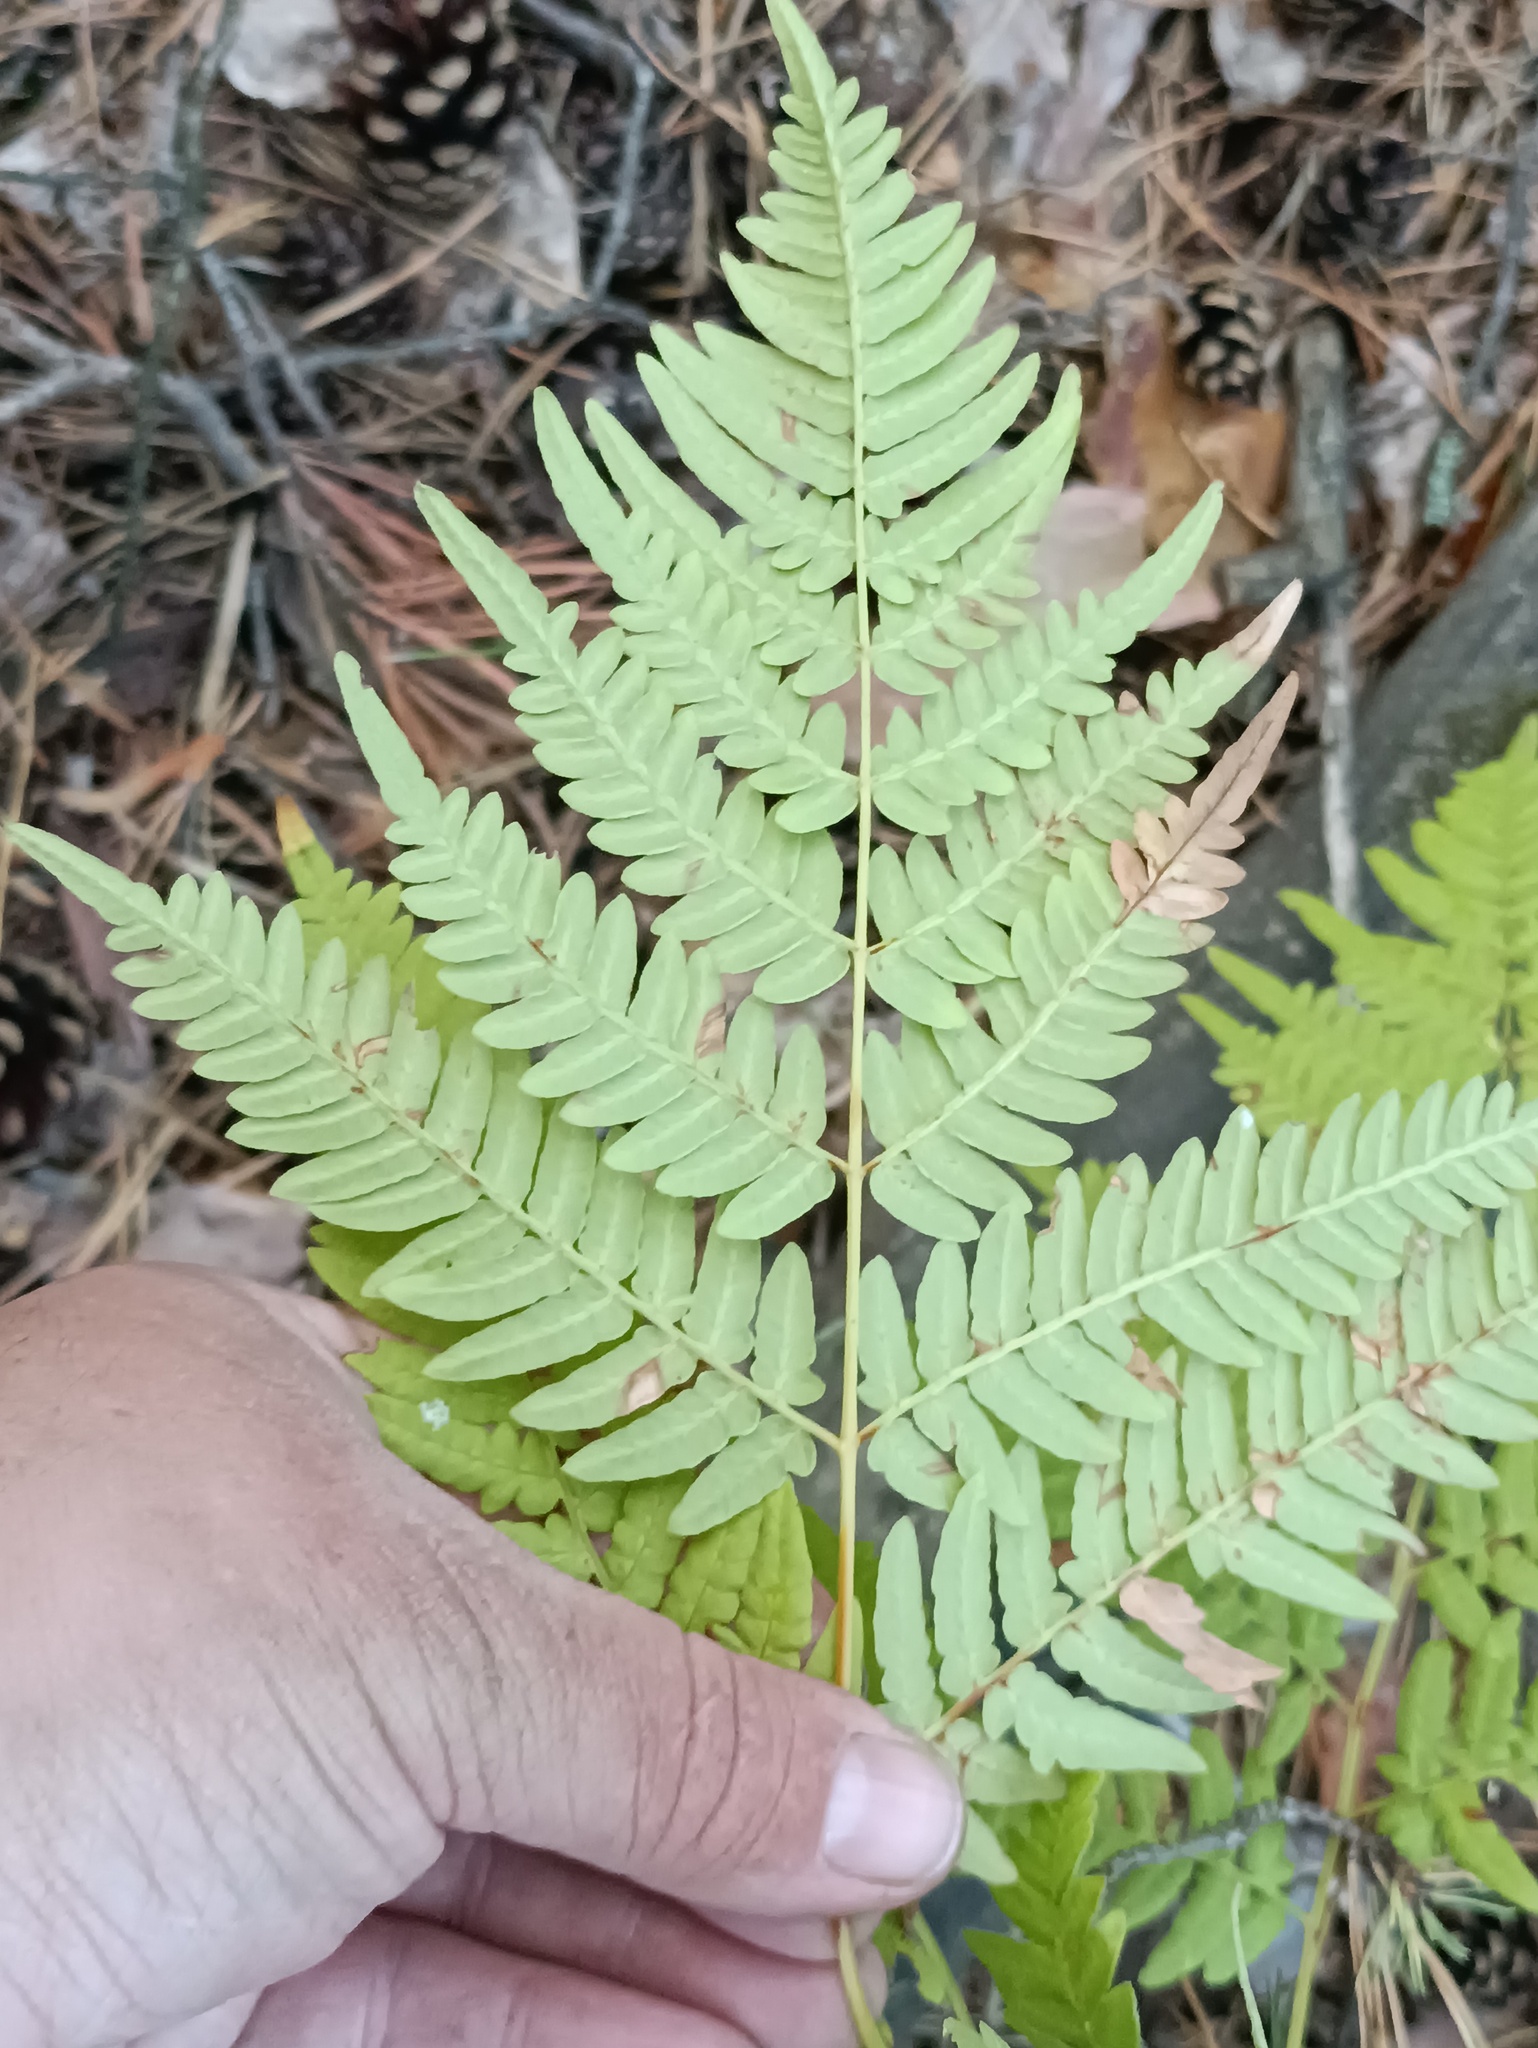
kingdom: Plantae
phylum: Tracheophyta
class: Polypodiopsida
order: Polypodiales
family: Dennstaedtiaceae
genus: Pteridium
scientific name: Pteridium aquilinum
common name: Bracken
